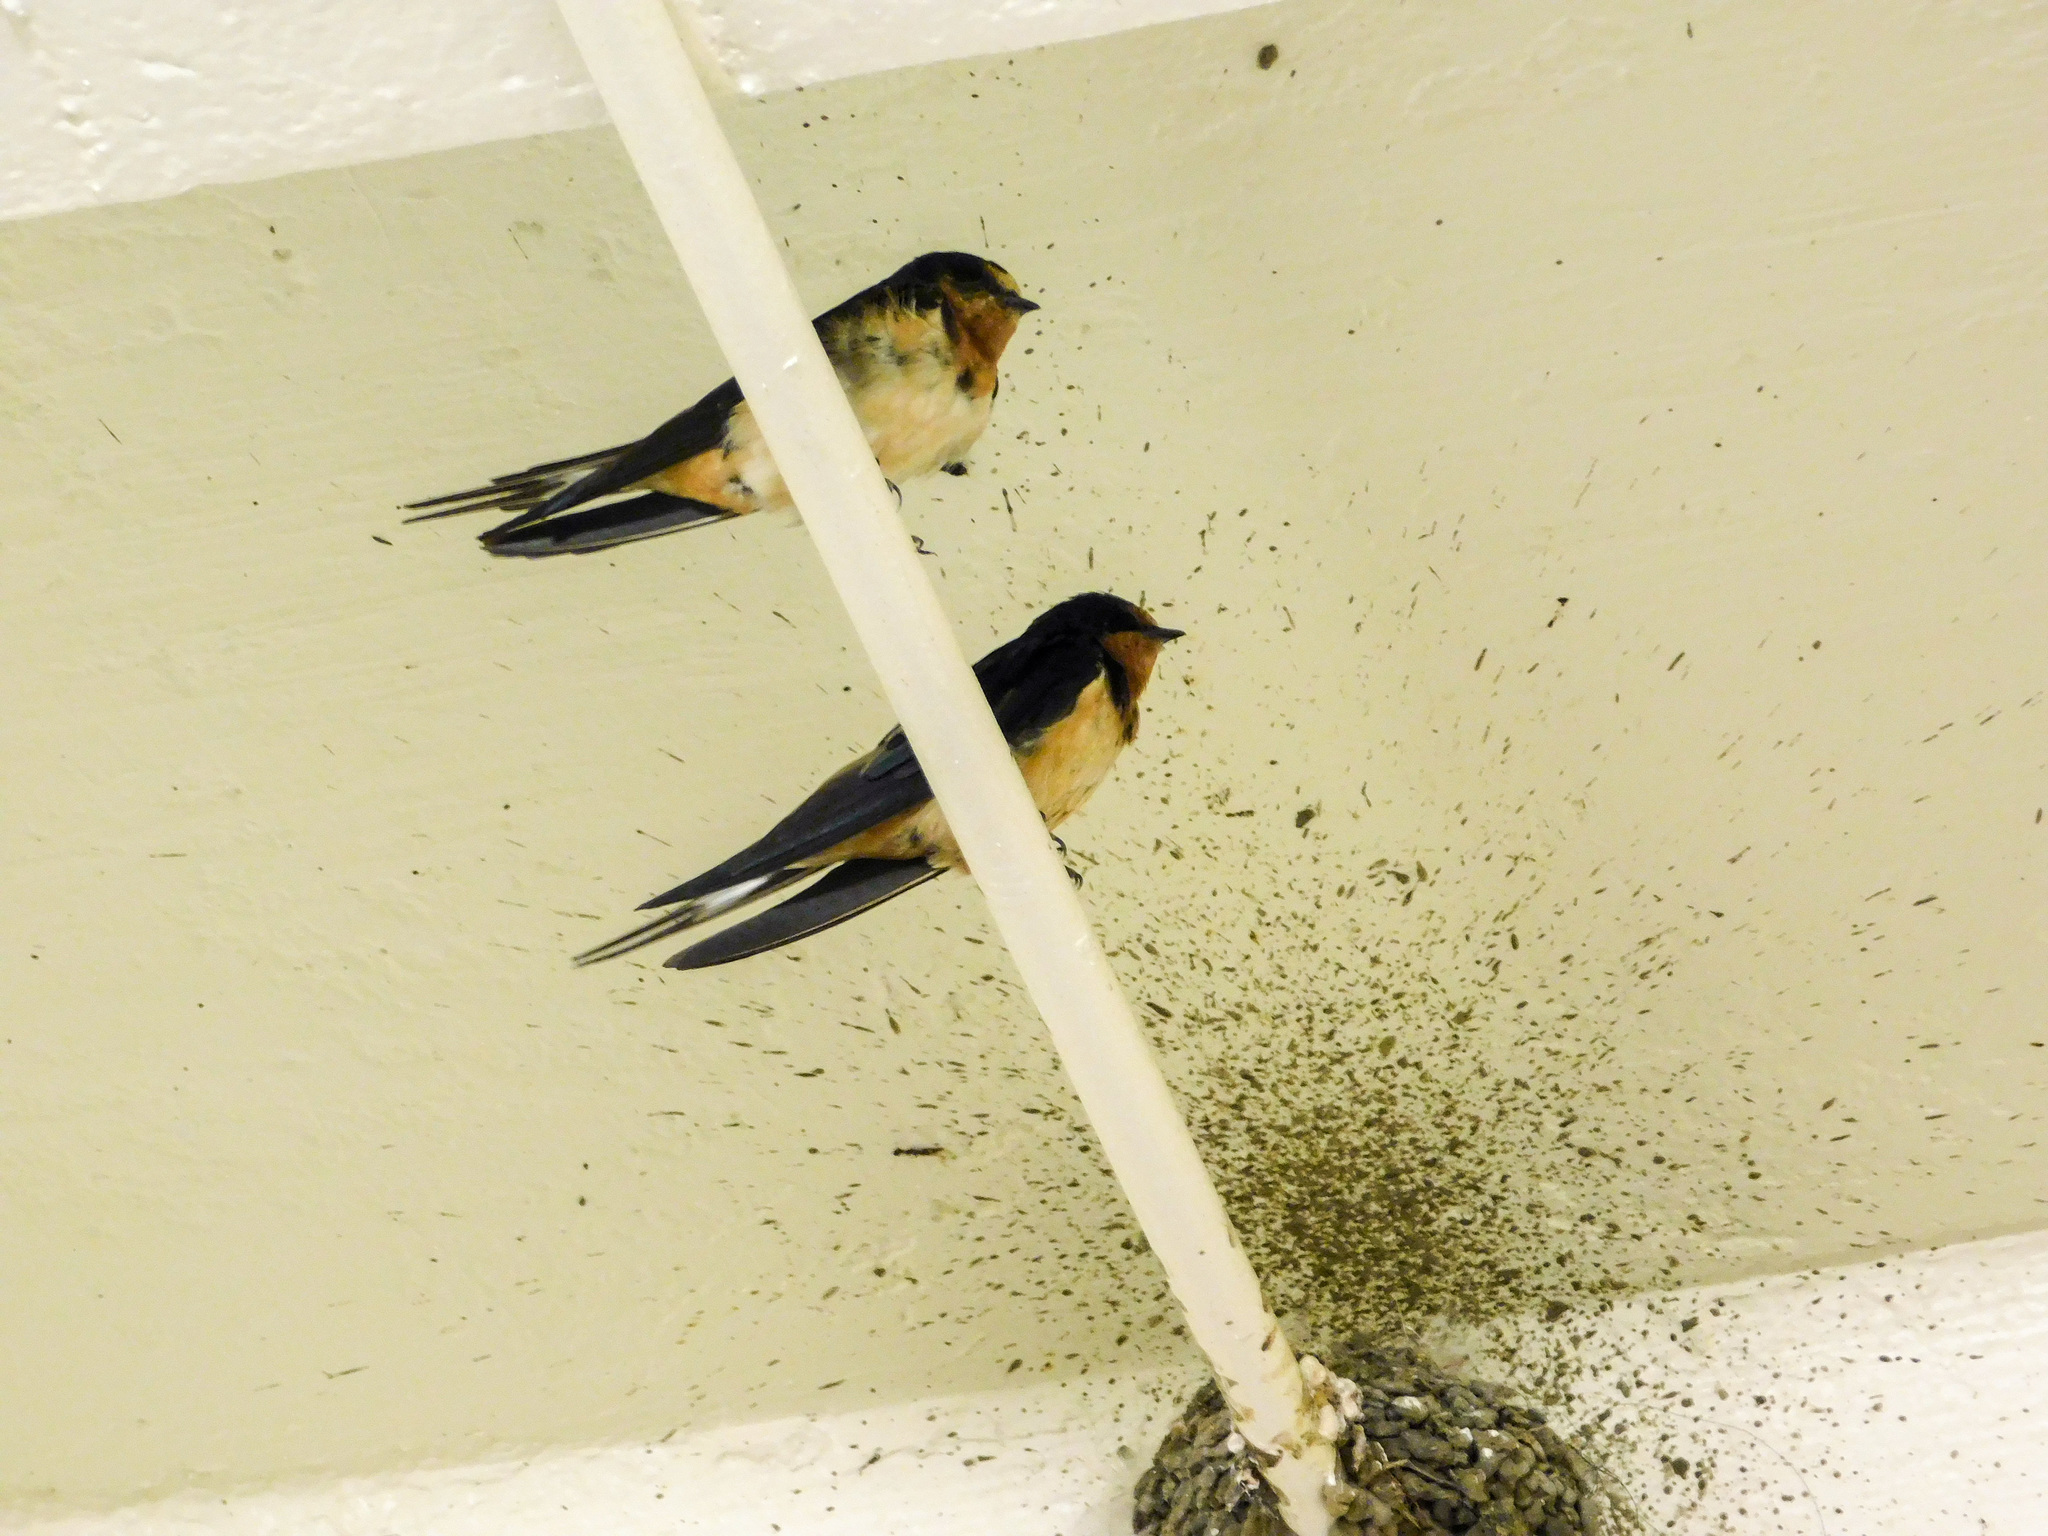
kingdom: Animalia
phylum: Chordata
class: Aves
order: Passeriformes
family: Hirundinidae
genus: Hirundo
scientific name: Hirundo rustica
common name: Barn swallow
